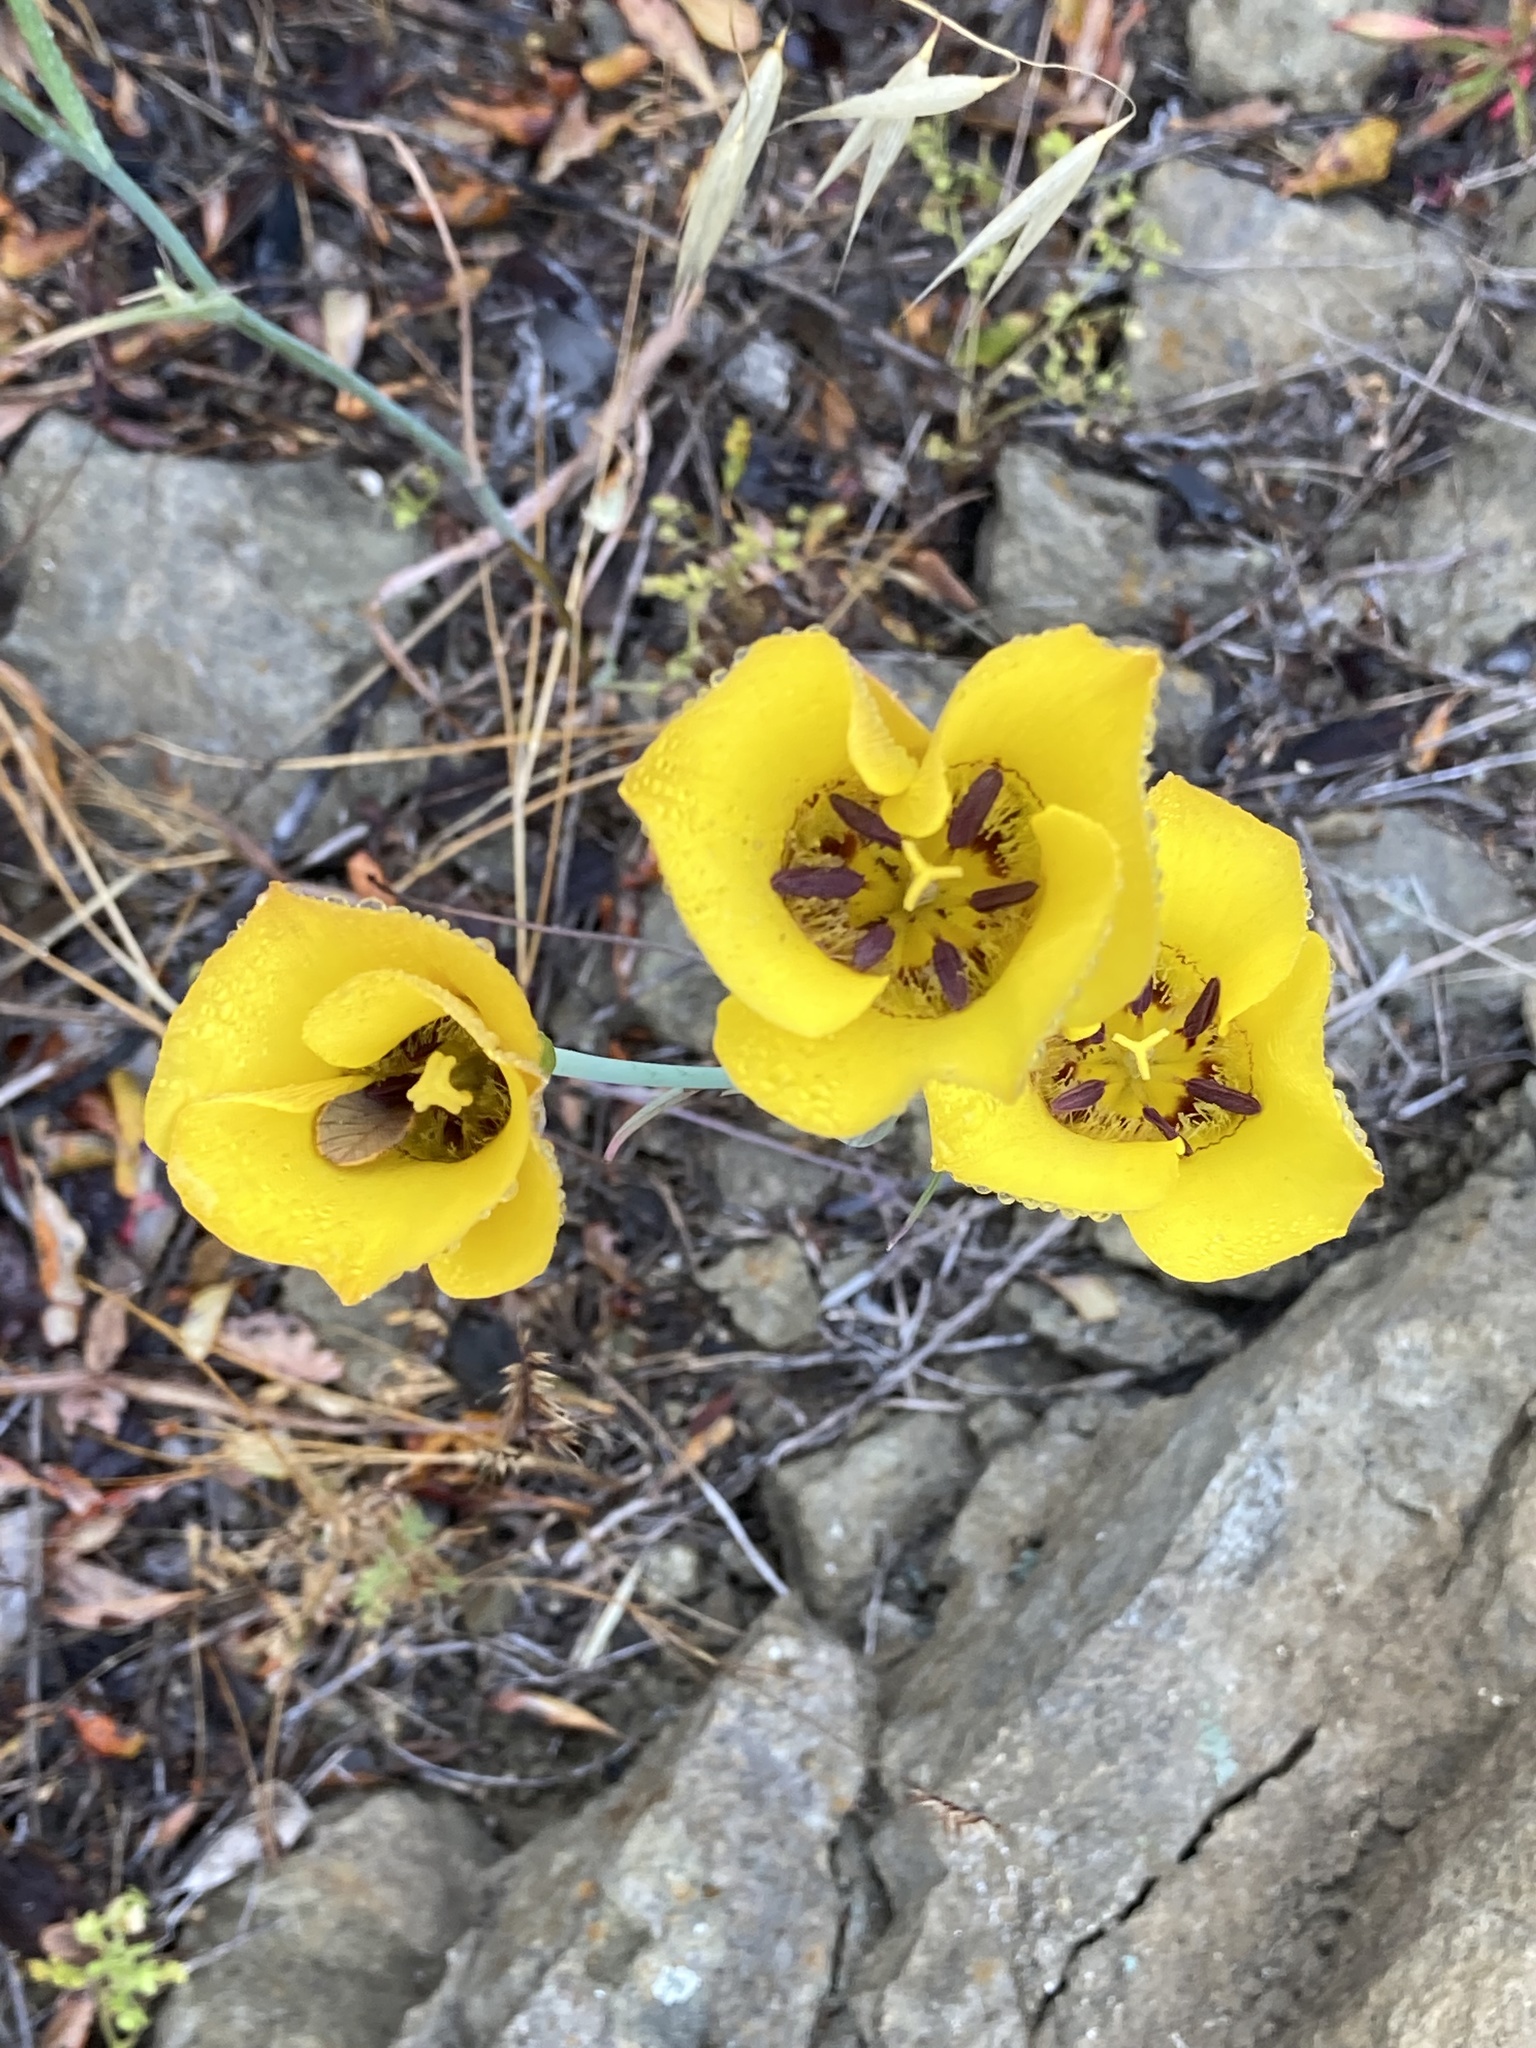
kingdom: Plantae
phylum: Tracheophyta
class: Liliopsida
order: Liliales
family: Liliaceae
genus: Calochortus
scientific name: Calochortus clavatus
